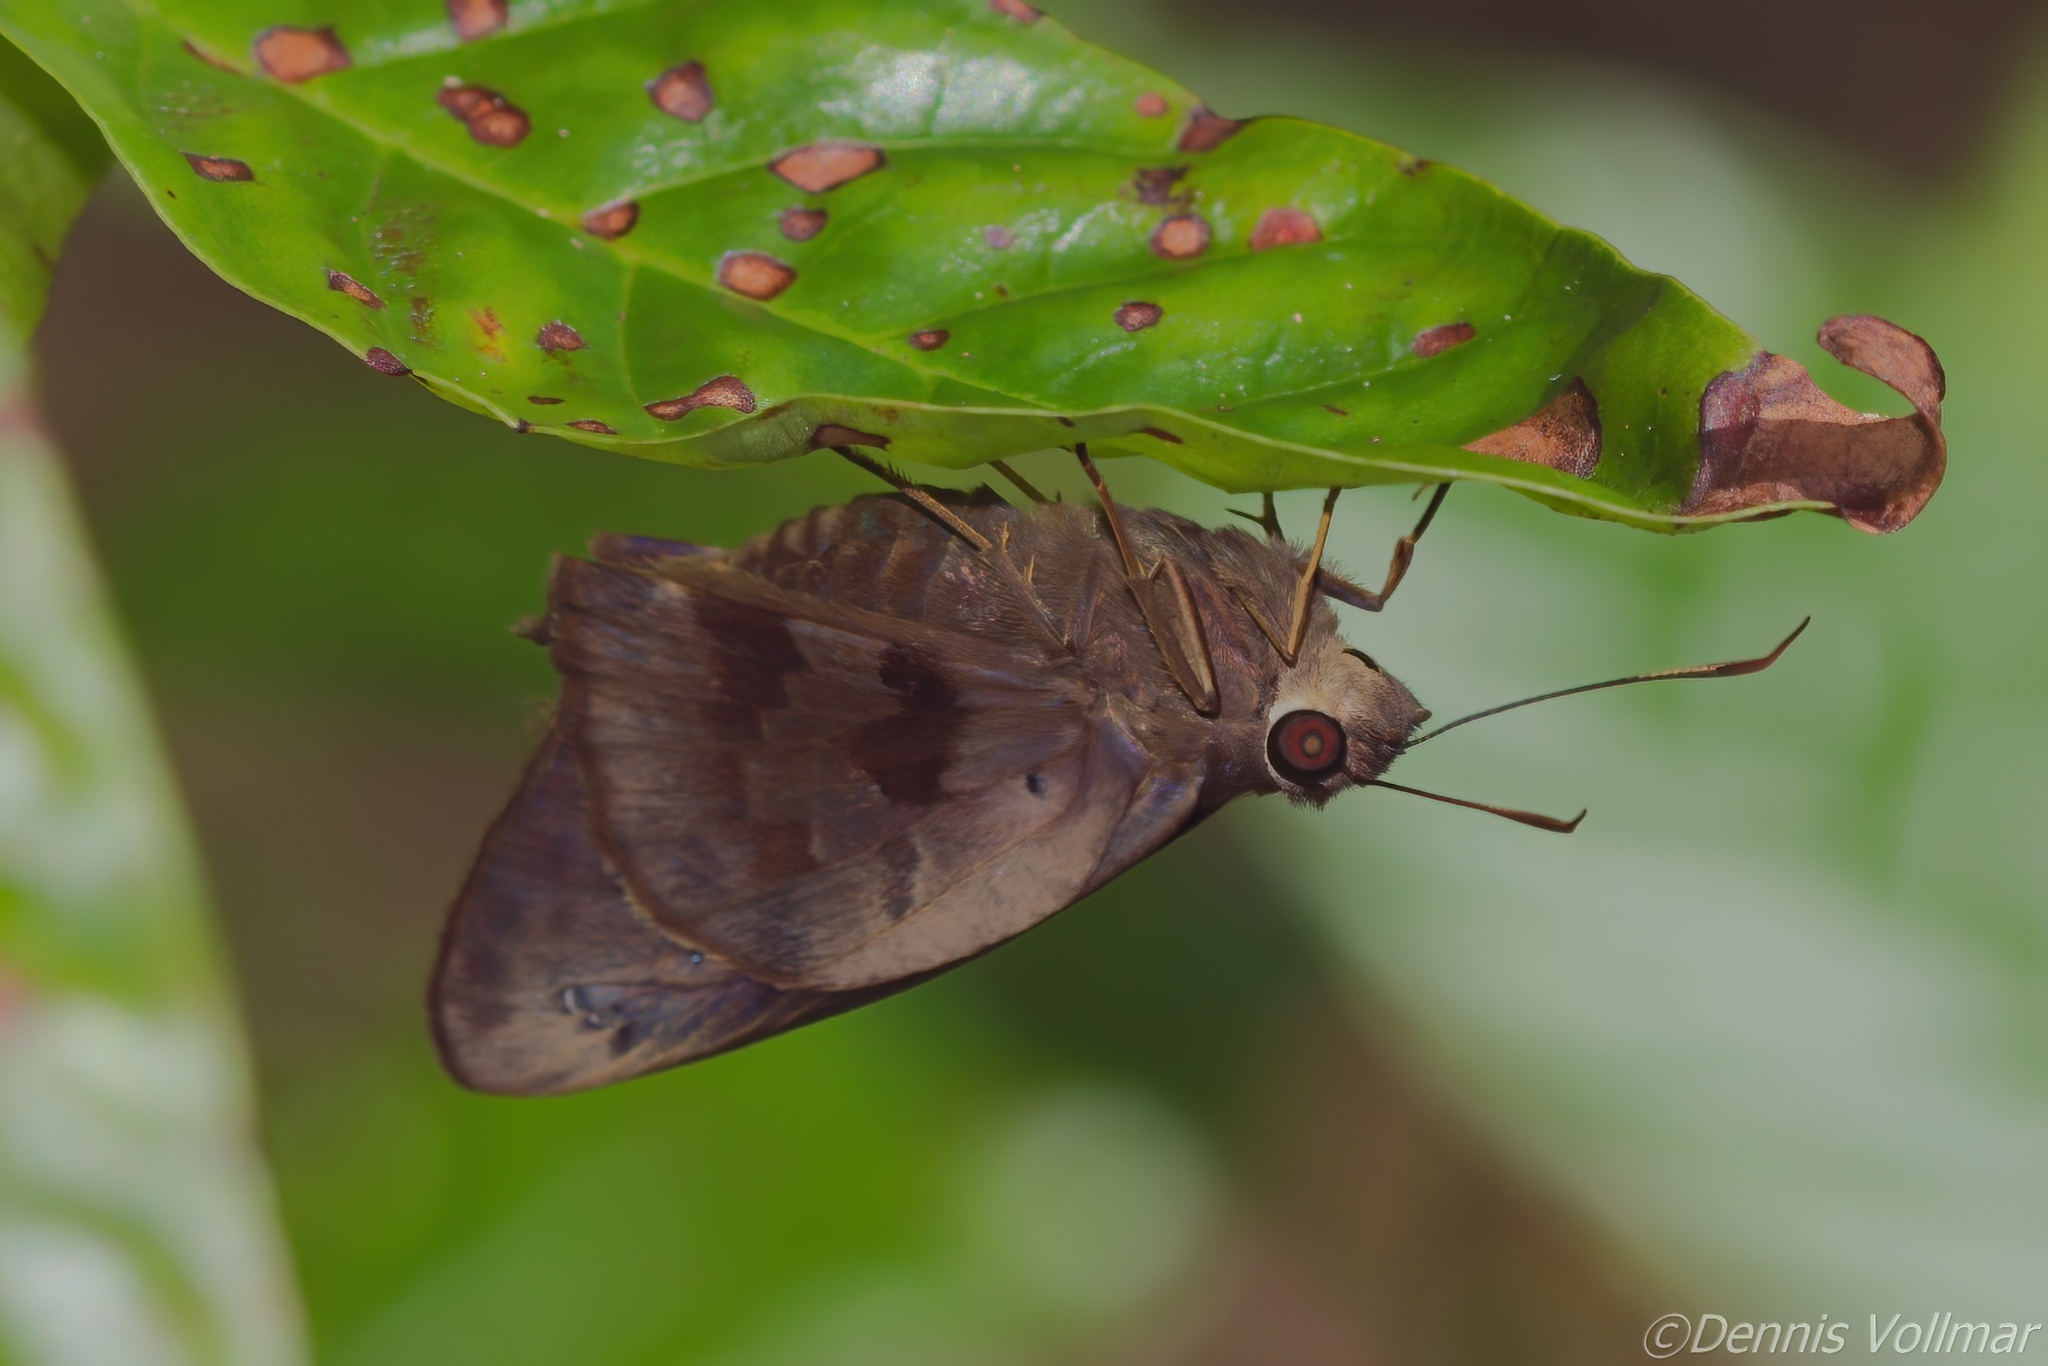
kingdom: Animalia
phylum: Arthropoda
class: Insecta
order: Lepidoptera
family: Hesperiidae
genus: Polygonus
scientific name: Polygonus leo
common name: Hammoch skipper
